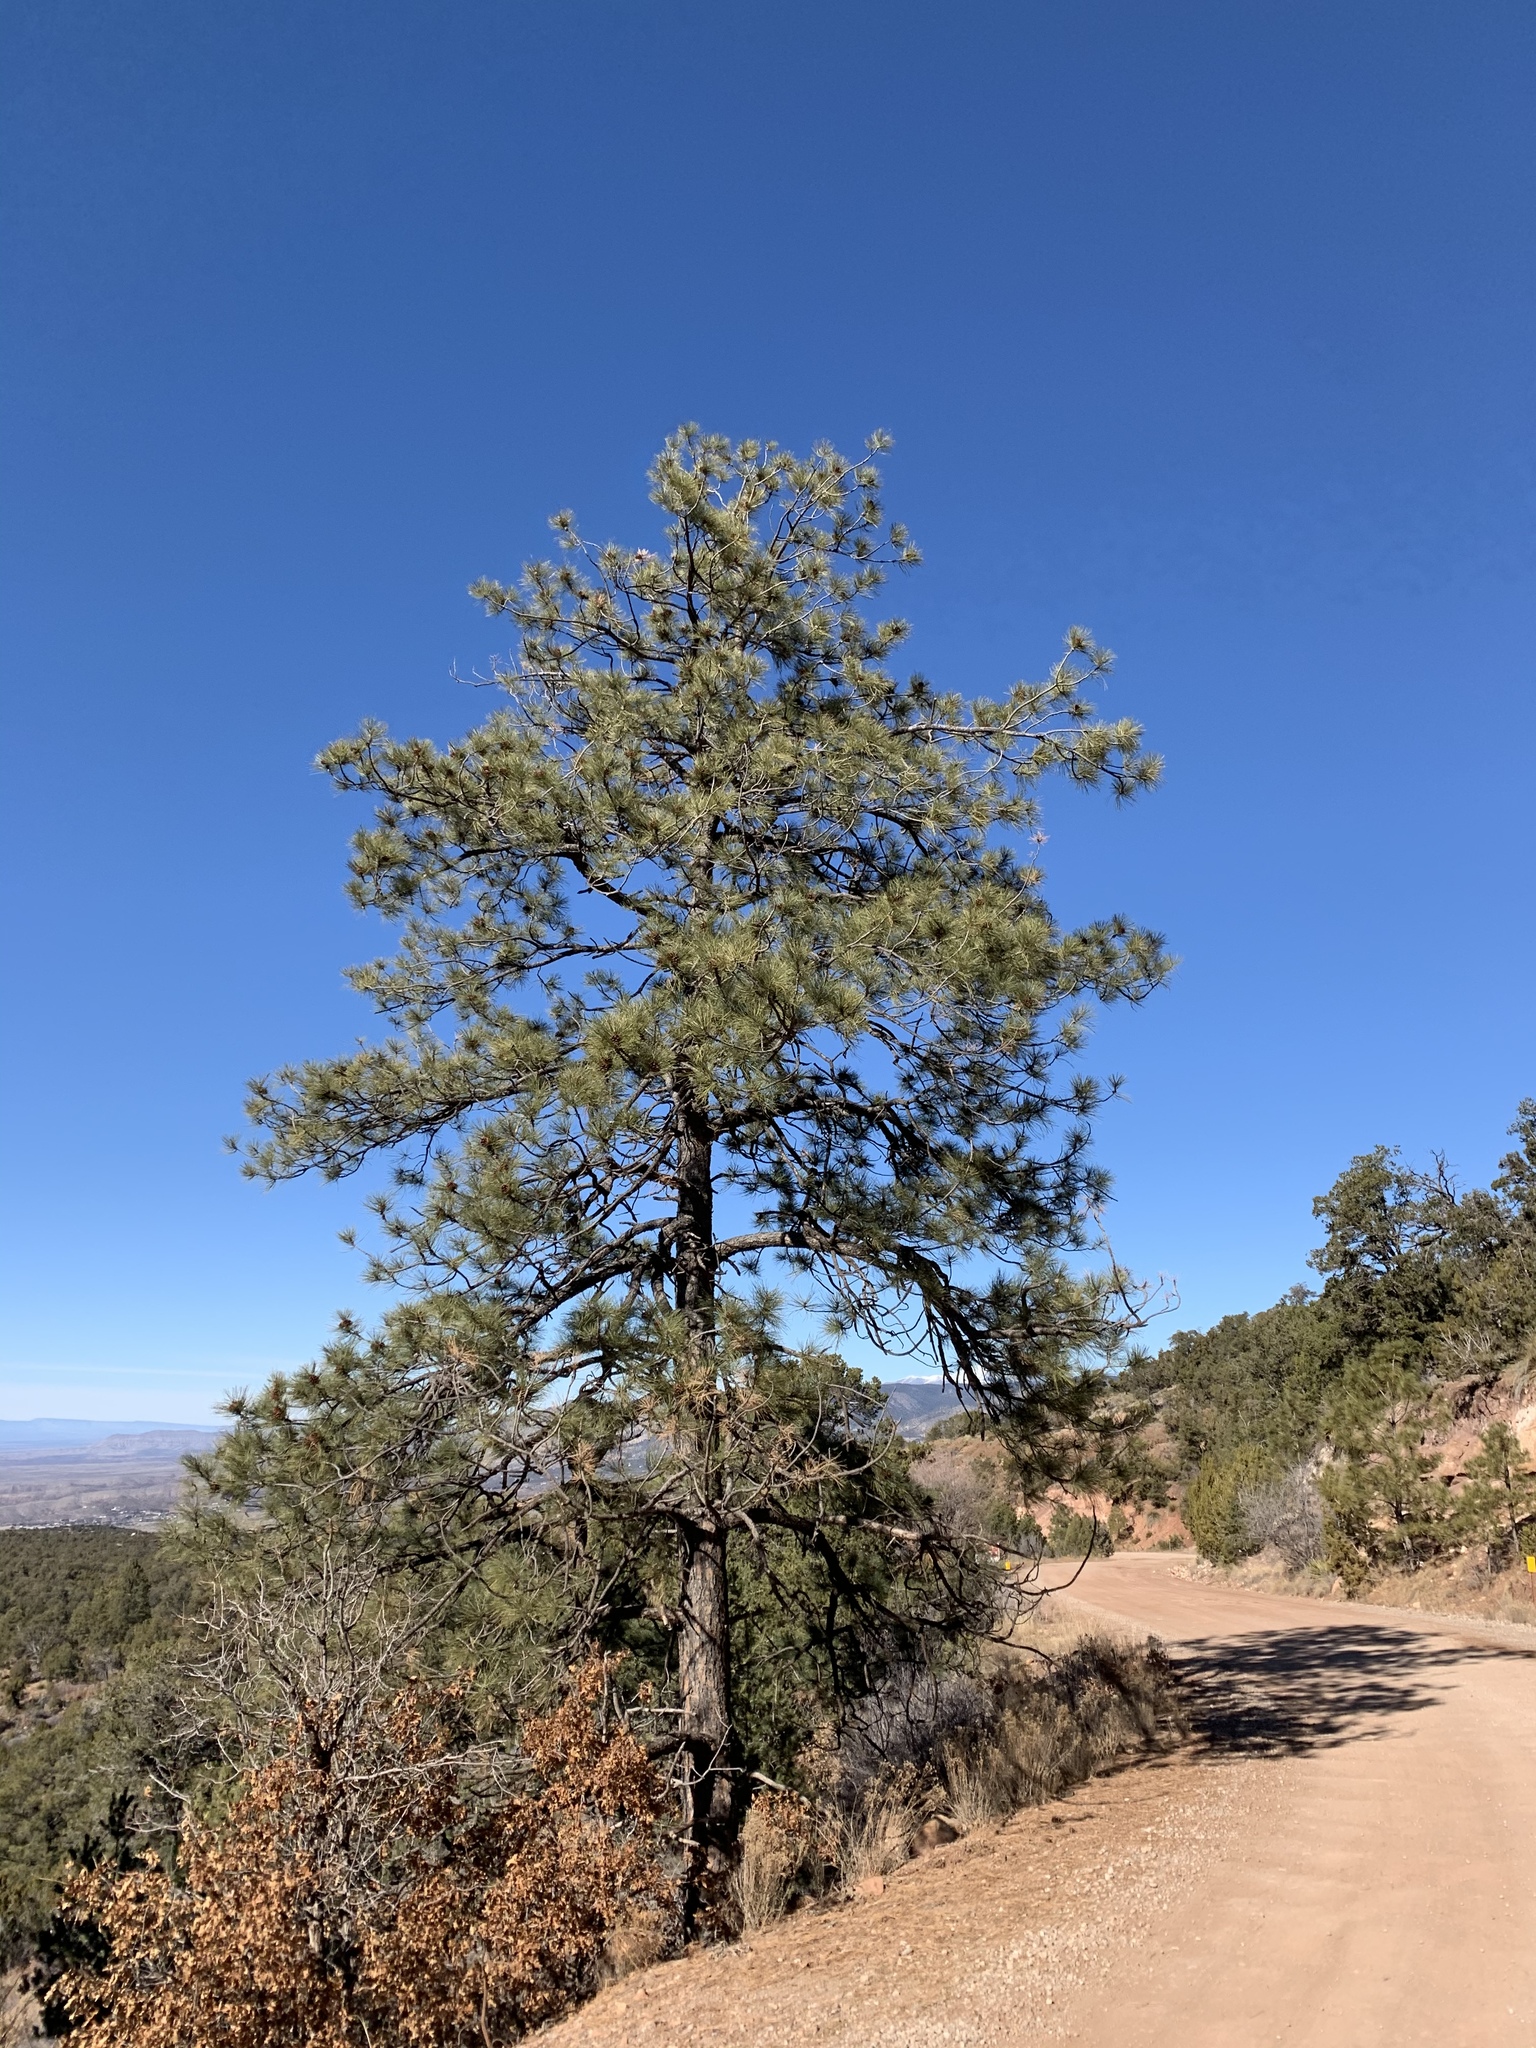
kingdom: Plantae
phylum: Tracheophyta
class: Pinopsida
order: Pinales
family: Pinaceae
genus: Pinus
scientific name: Pinus ponderosa
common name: Western yellow-pine
